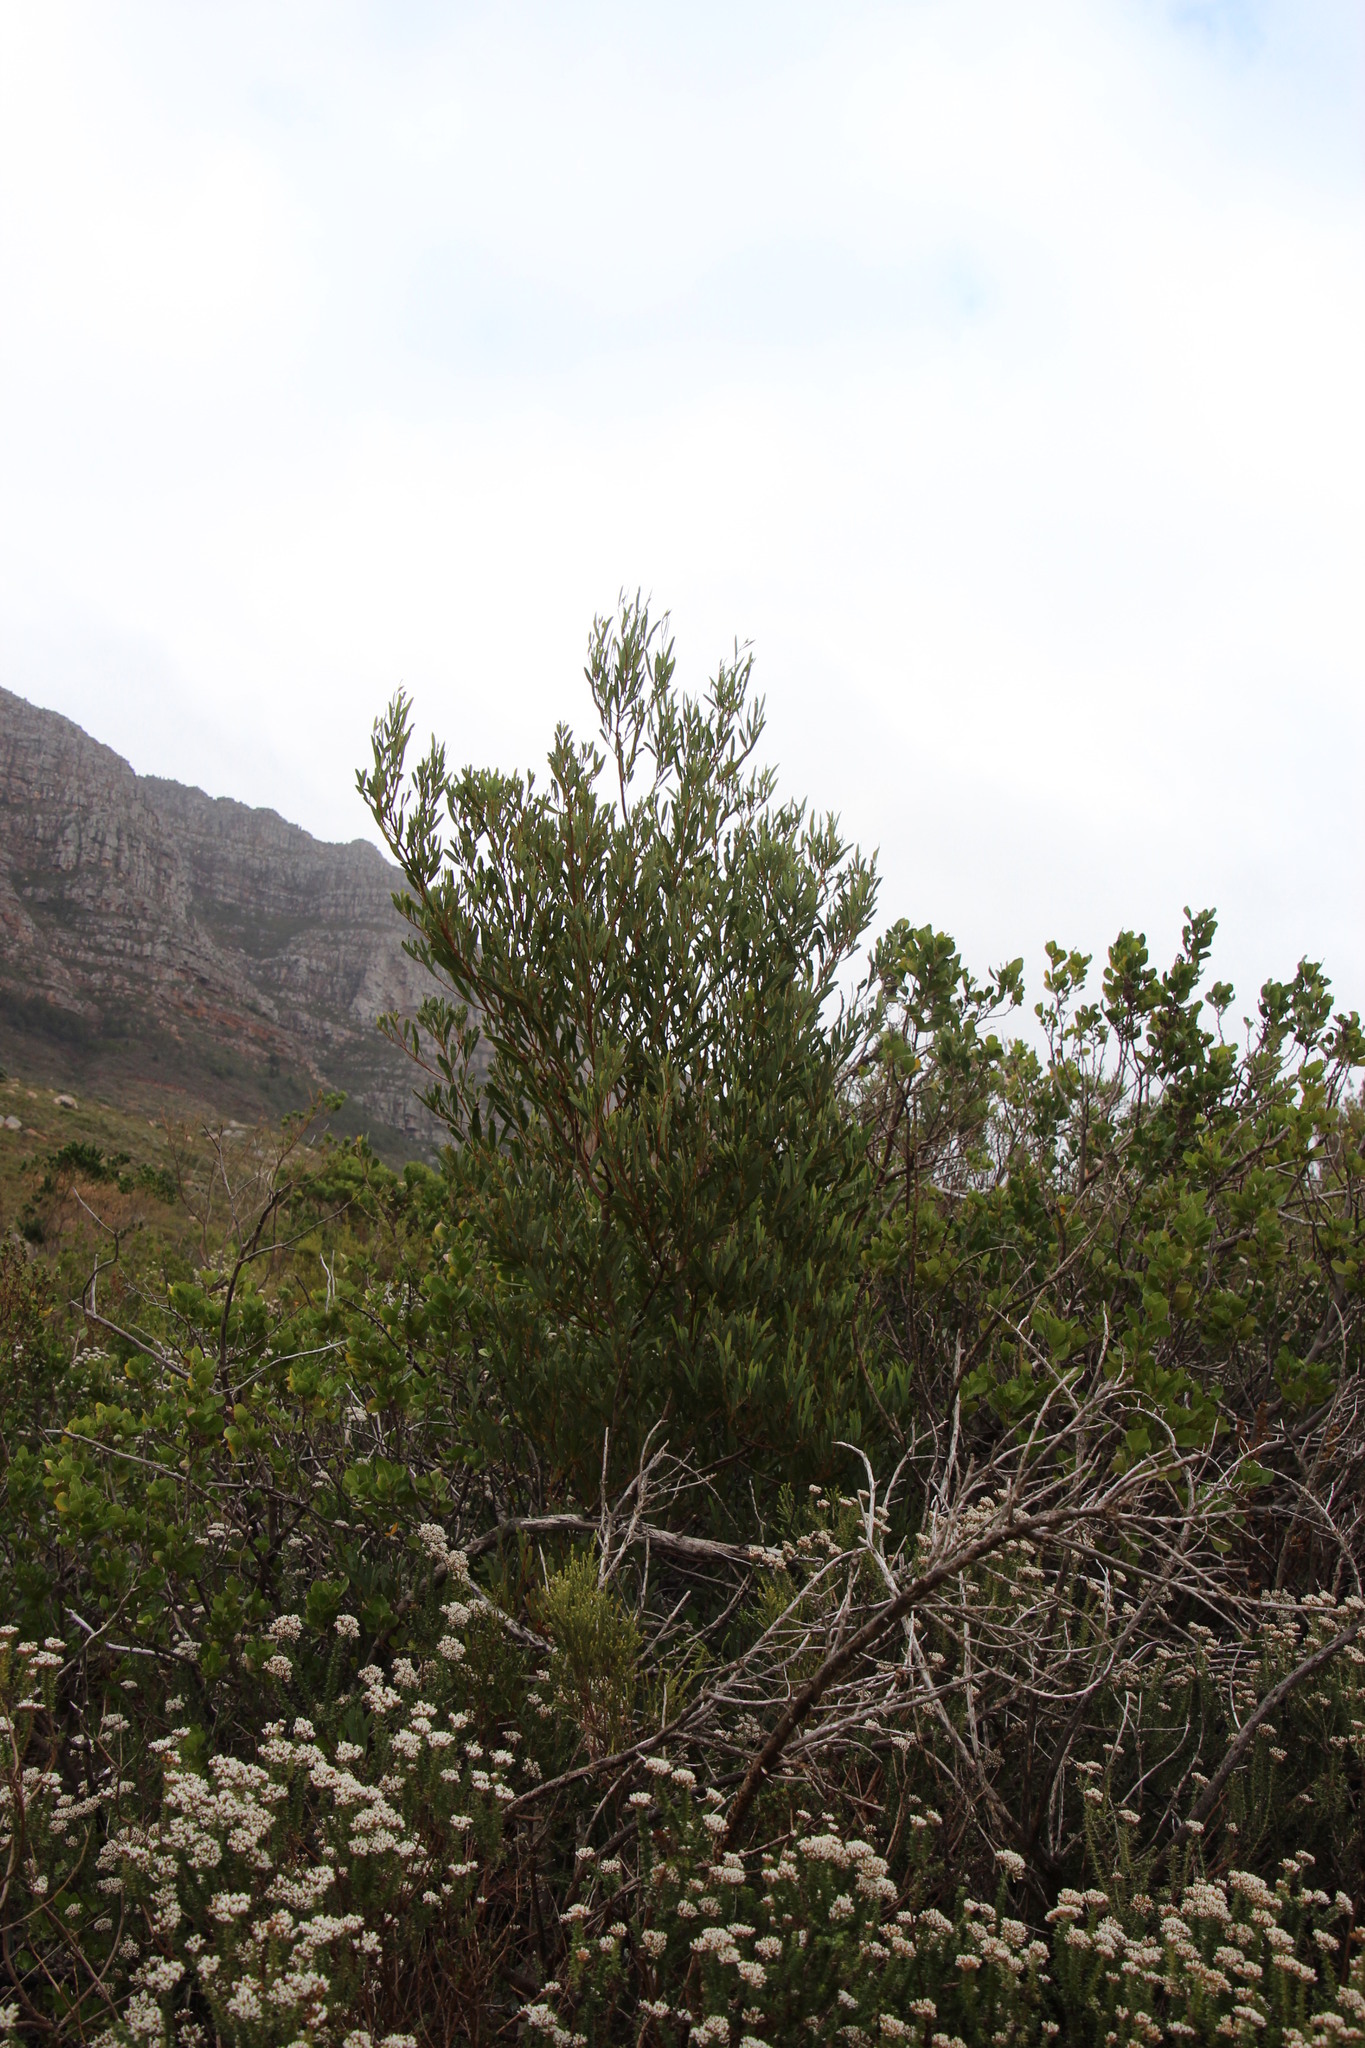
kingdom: Plantae
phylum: Tracheophyta
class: Magnoliopsida
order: Fabales
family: Fabaceae
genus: Acacia
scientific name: Acacia cyclops
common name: Coastal wattle
